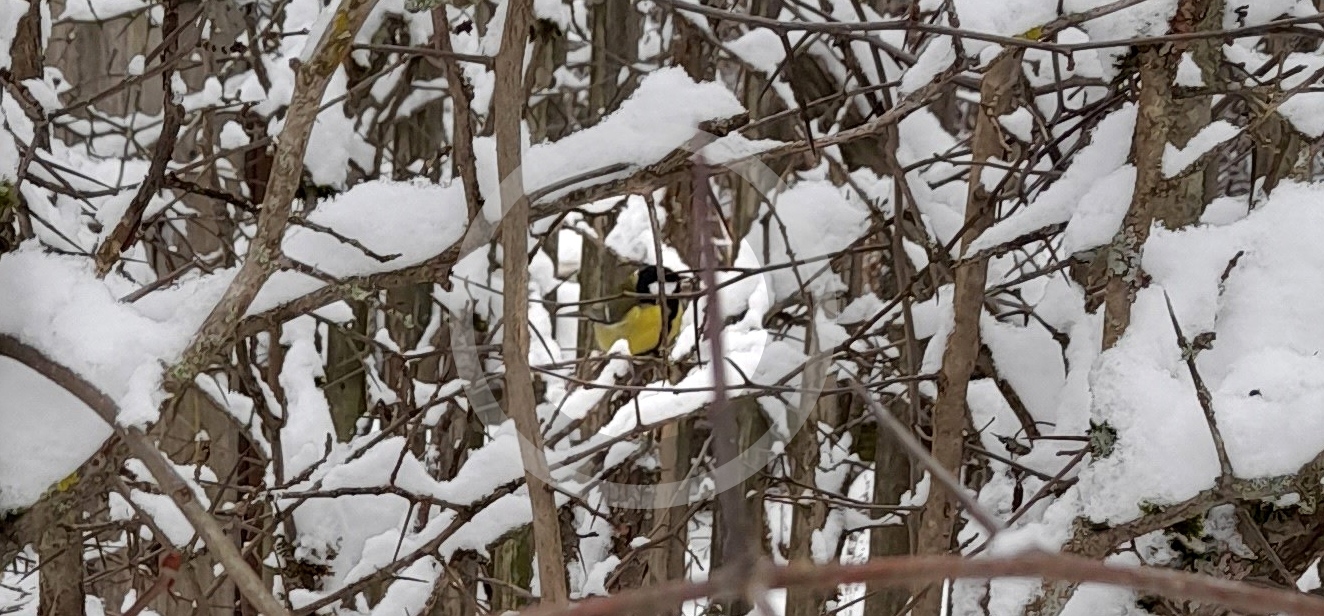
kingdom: Animalia
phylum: Chordata
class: Aves
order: Passeriformes
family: Paridae
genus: Parus
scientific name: Parus major
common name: Great tit
